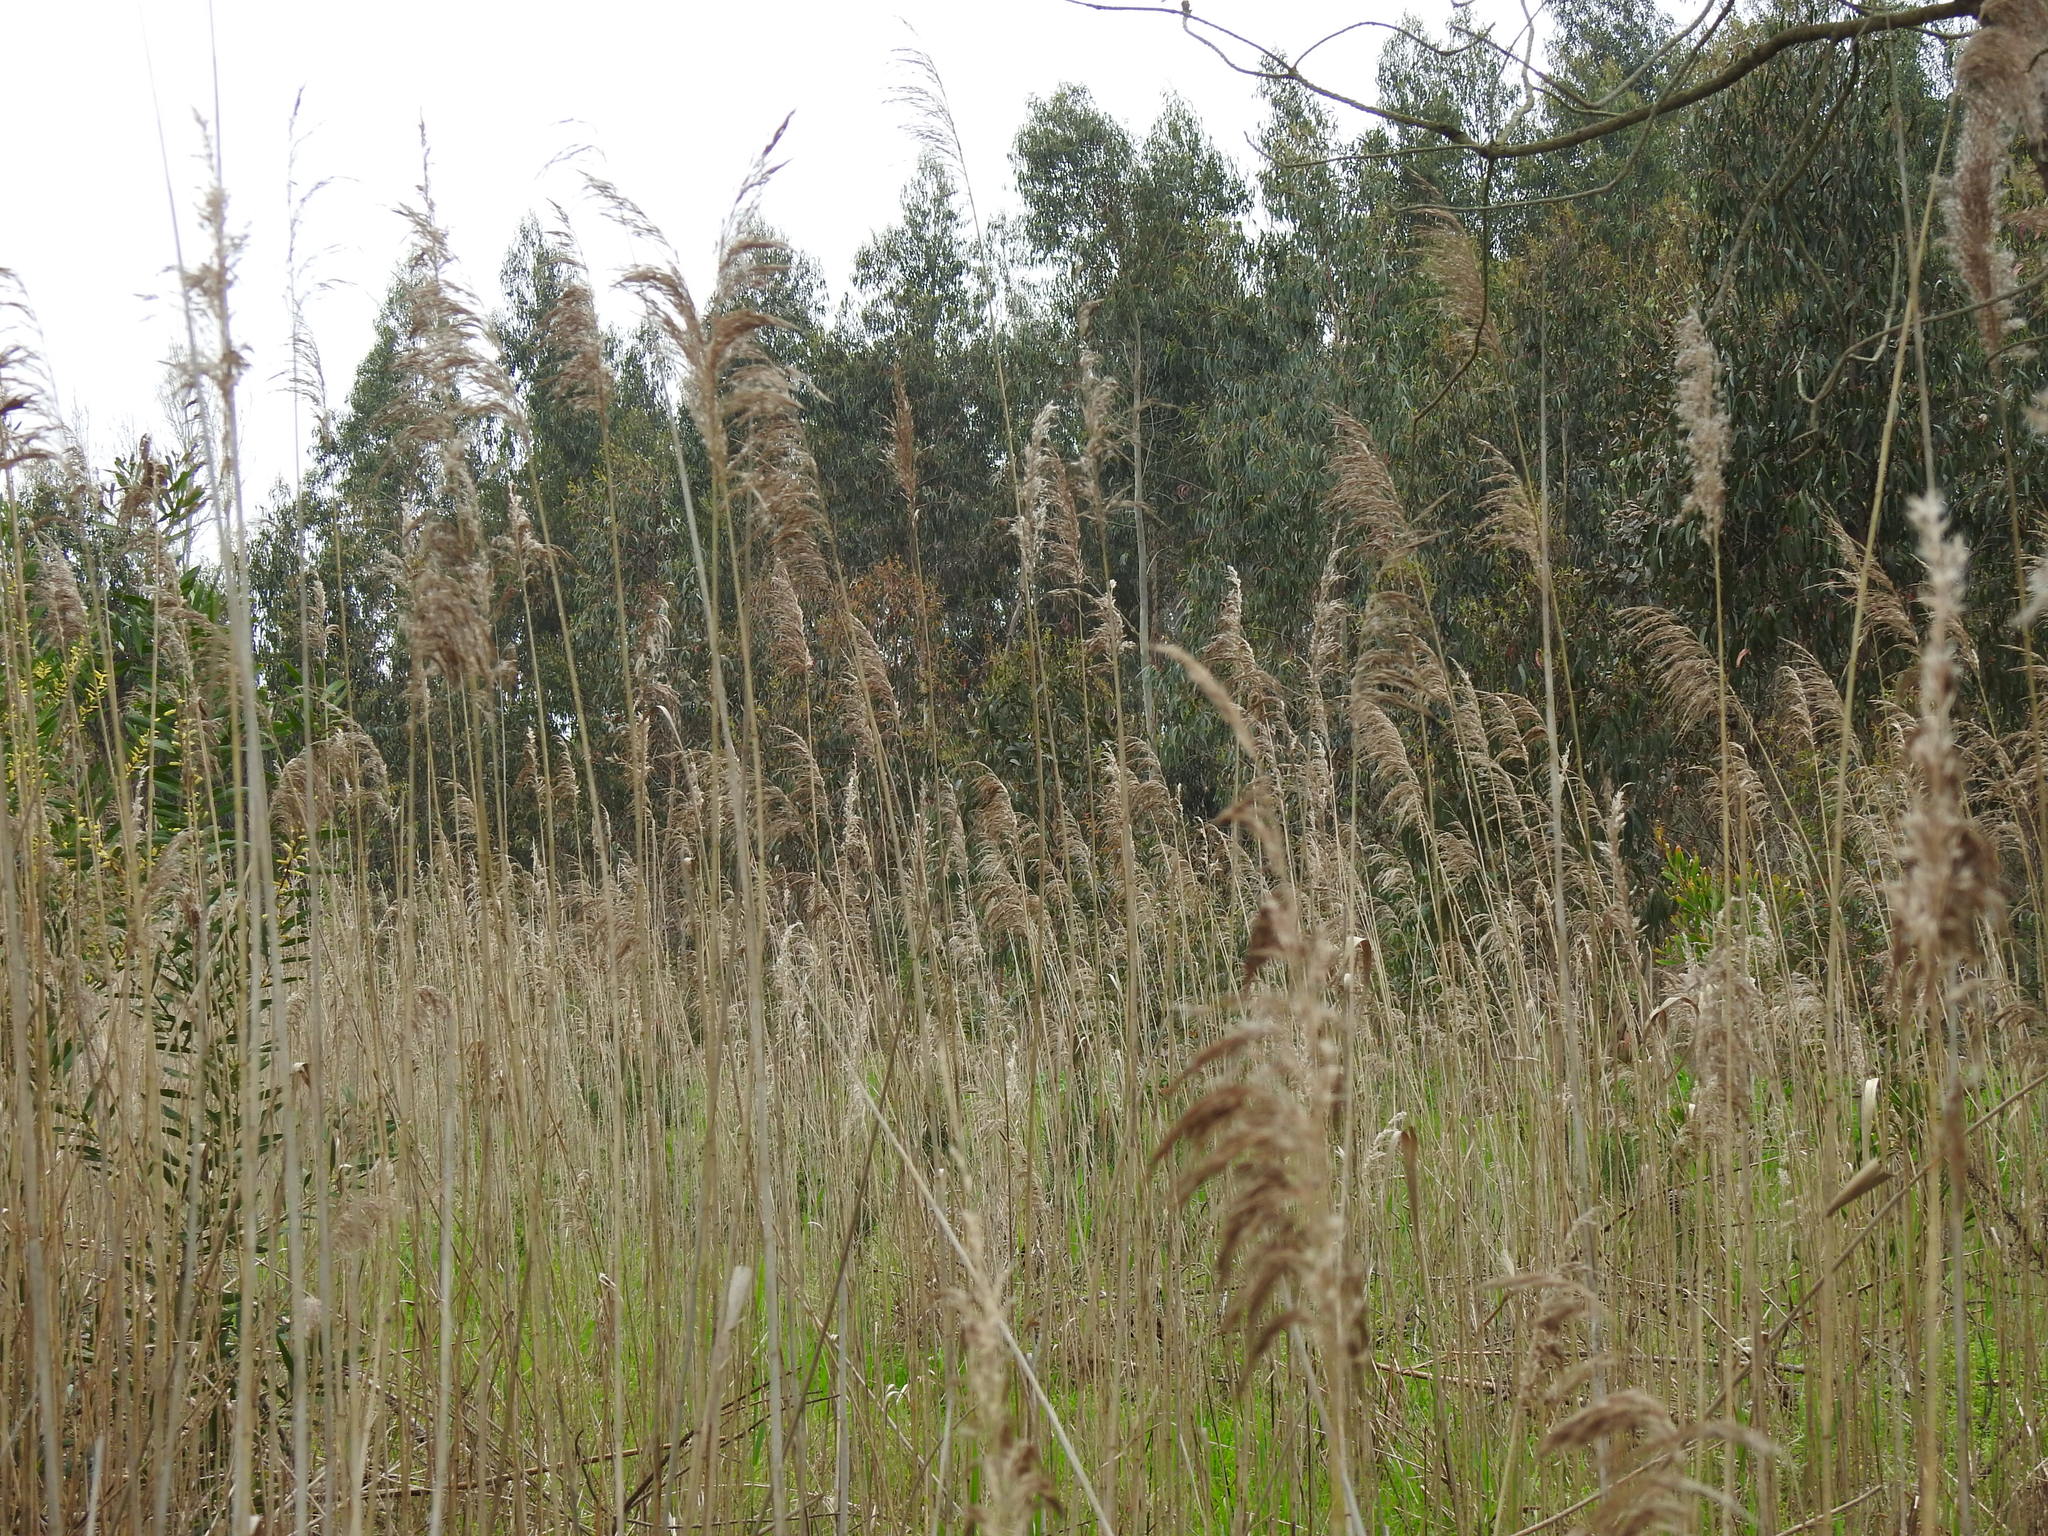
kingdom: Plantae
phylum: Tracheophyta
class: Liliopsida
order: Poales
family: Poaceae
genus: Phragmites
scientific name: Phragmites australis
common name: Common reed
